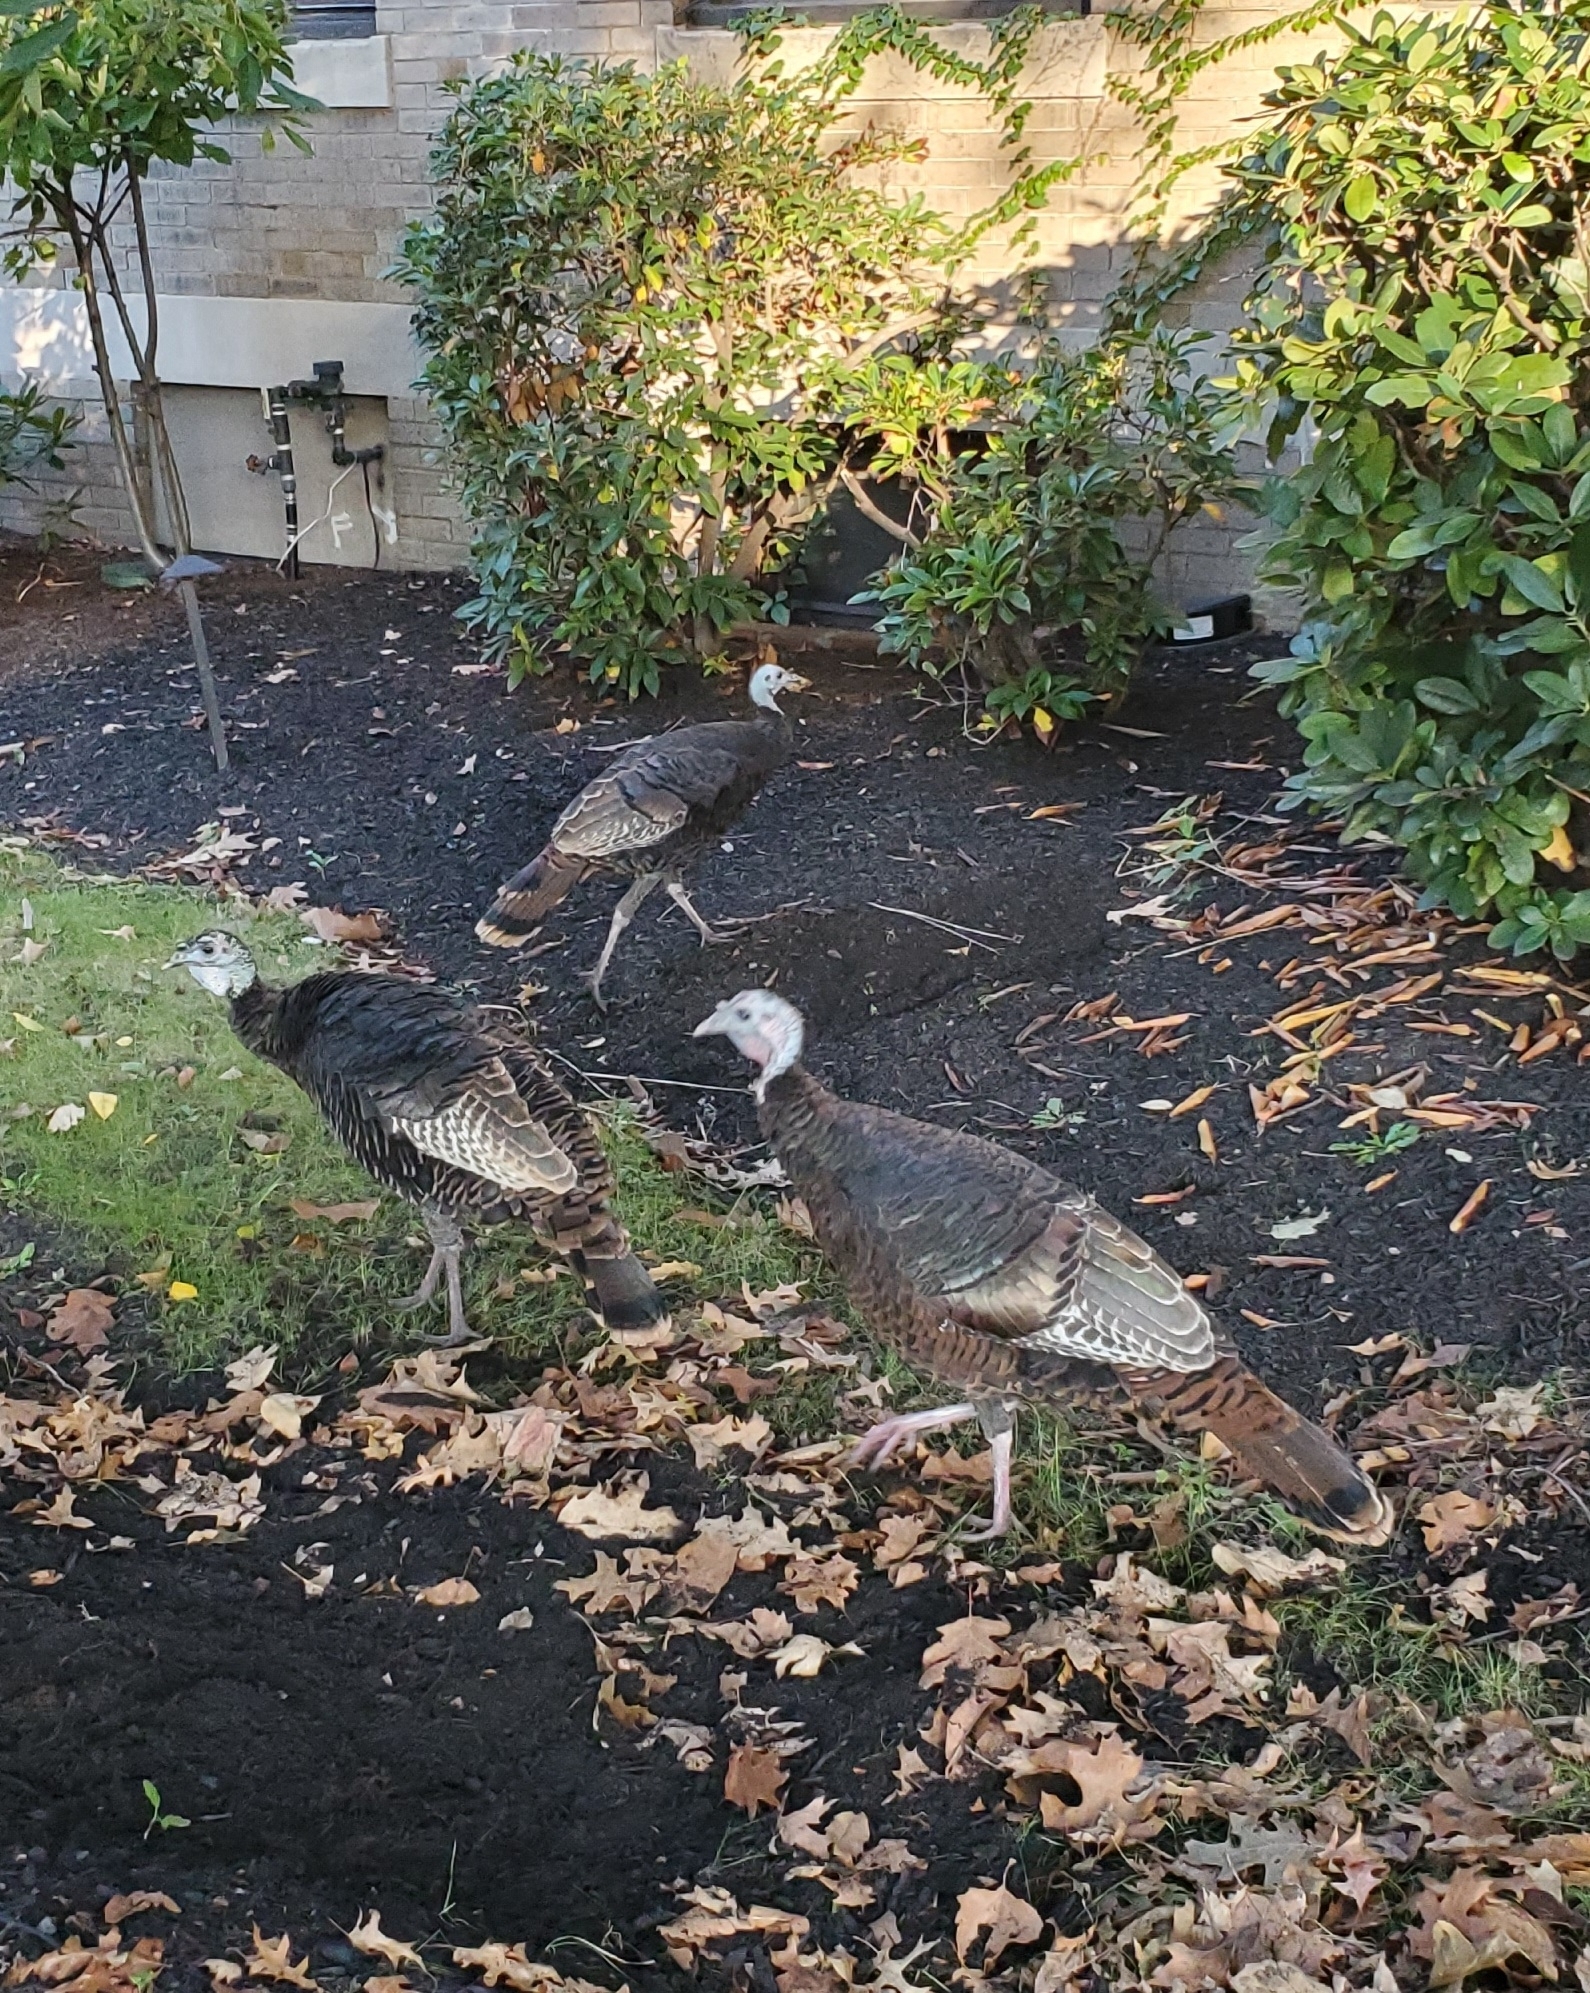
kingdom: Animalia
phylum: Chordata
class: Aves
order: Galliformes
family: Phasianidae
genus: Meleagris
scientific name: Meleagris gallopavo
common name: Wild turkey
